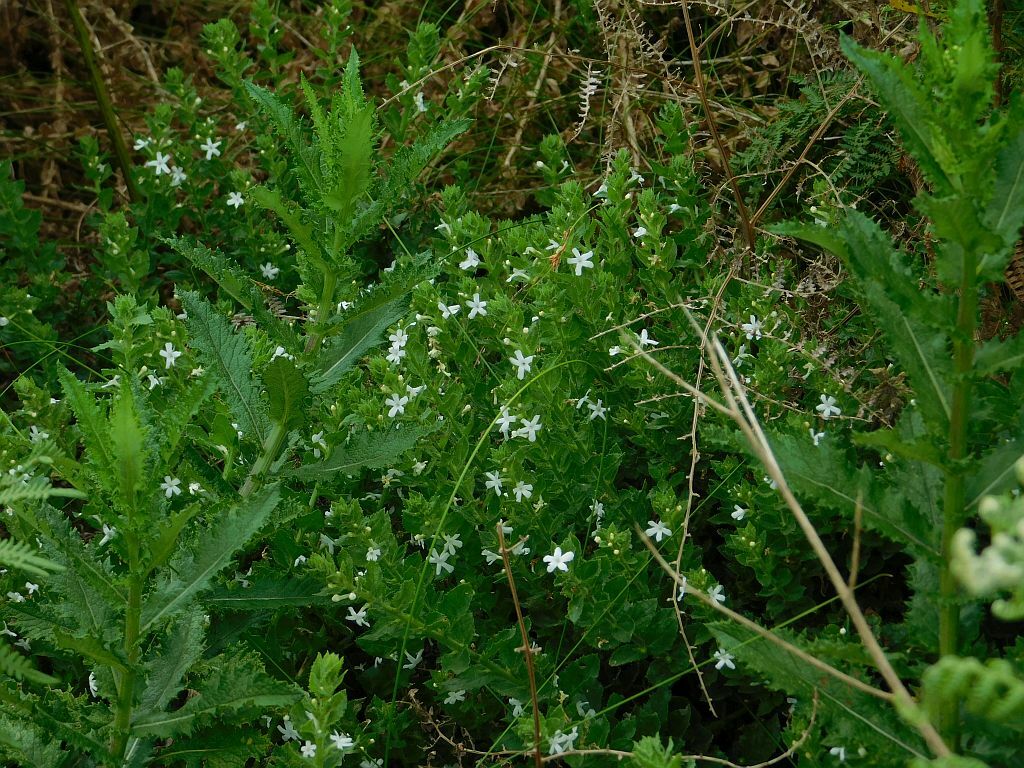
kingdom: Plantae
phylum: Tracheophyta
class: Magnoliopsida
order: Lamiales
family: Scrophulariaceae
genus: Oftia
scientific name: Oftia africana
